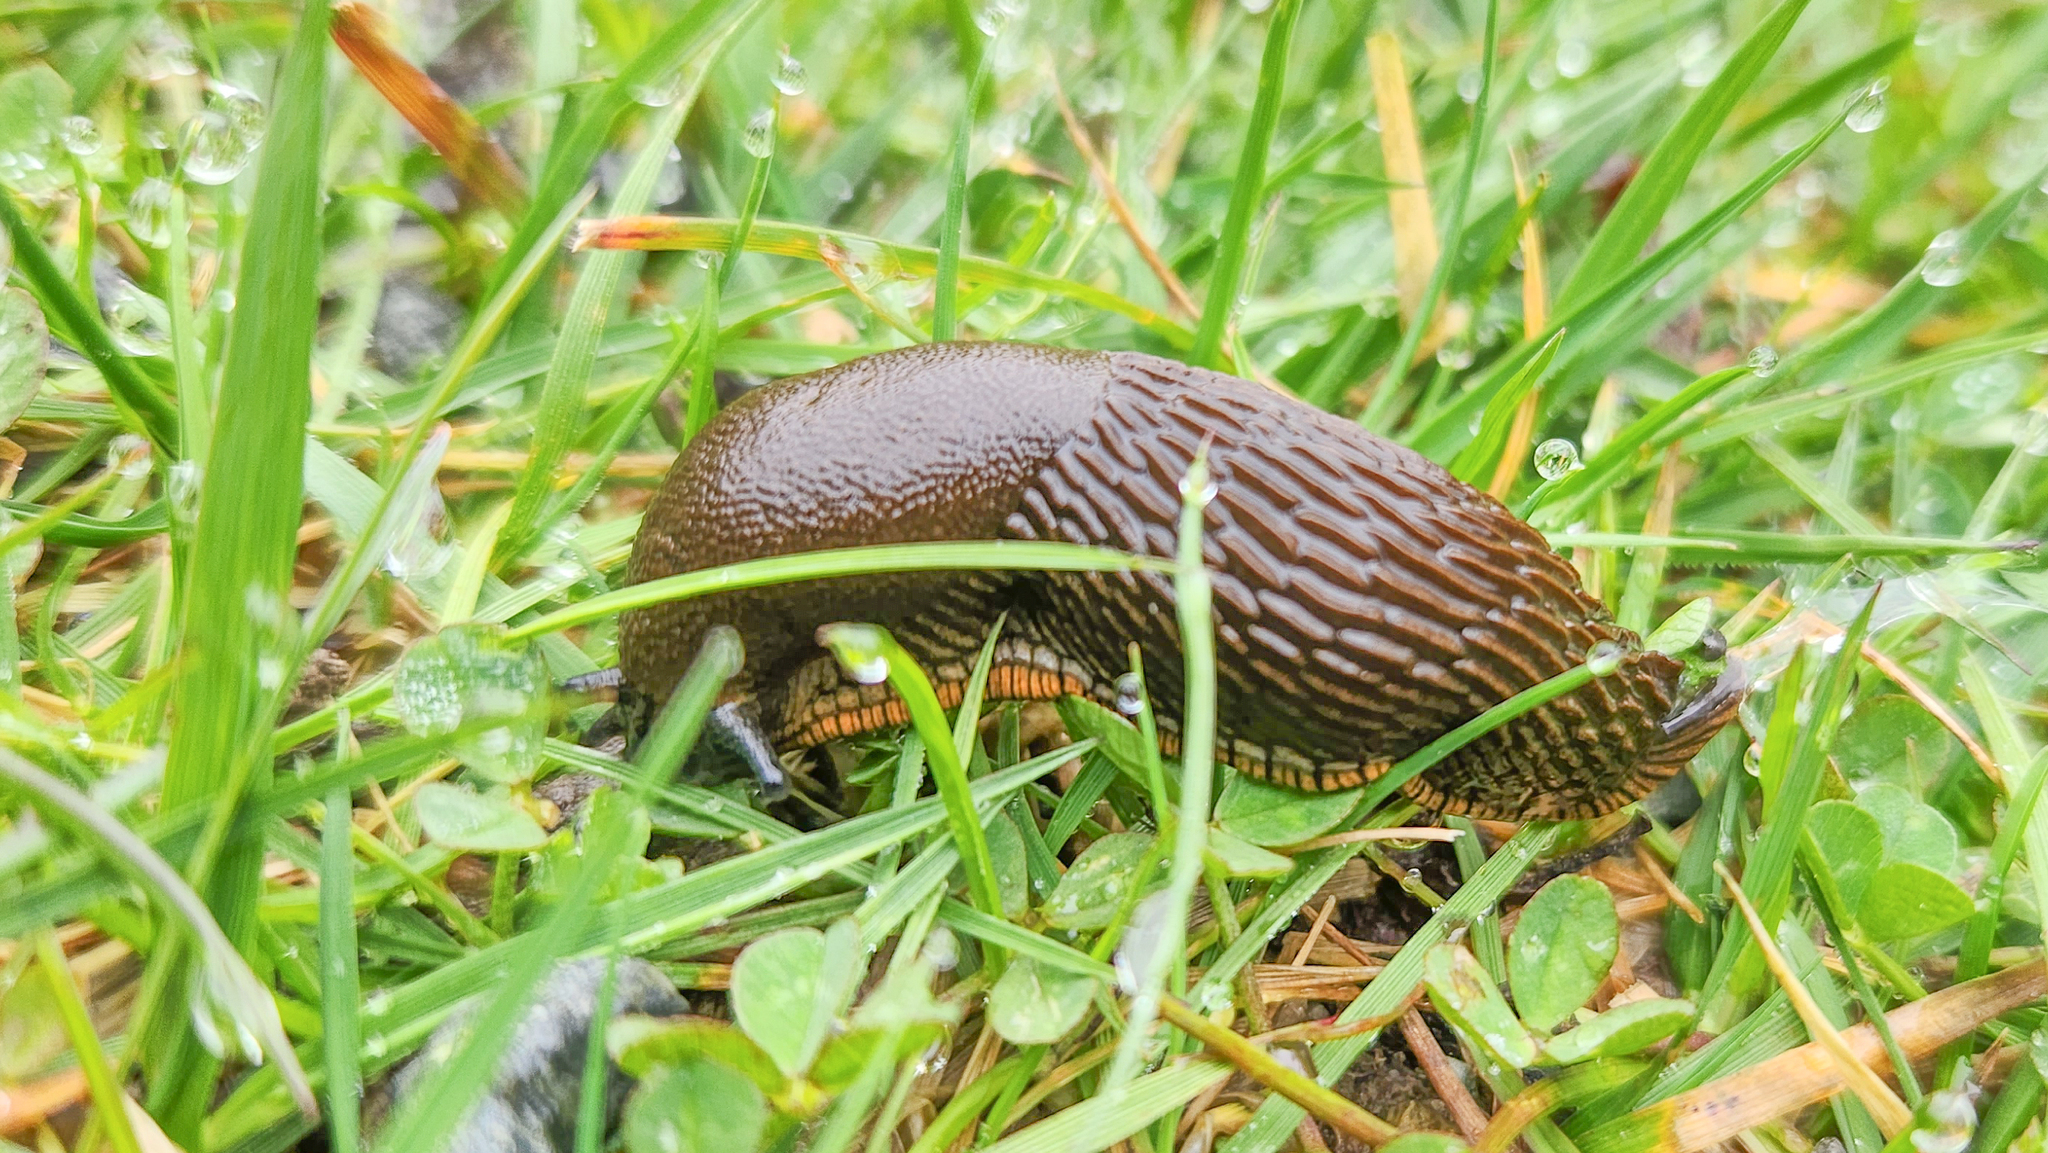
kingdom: Animalia
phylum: Mollusca
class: Gastropoda
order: Stylommatophora
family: Arionidae
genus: Arion
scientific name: Arion
